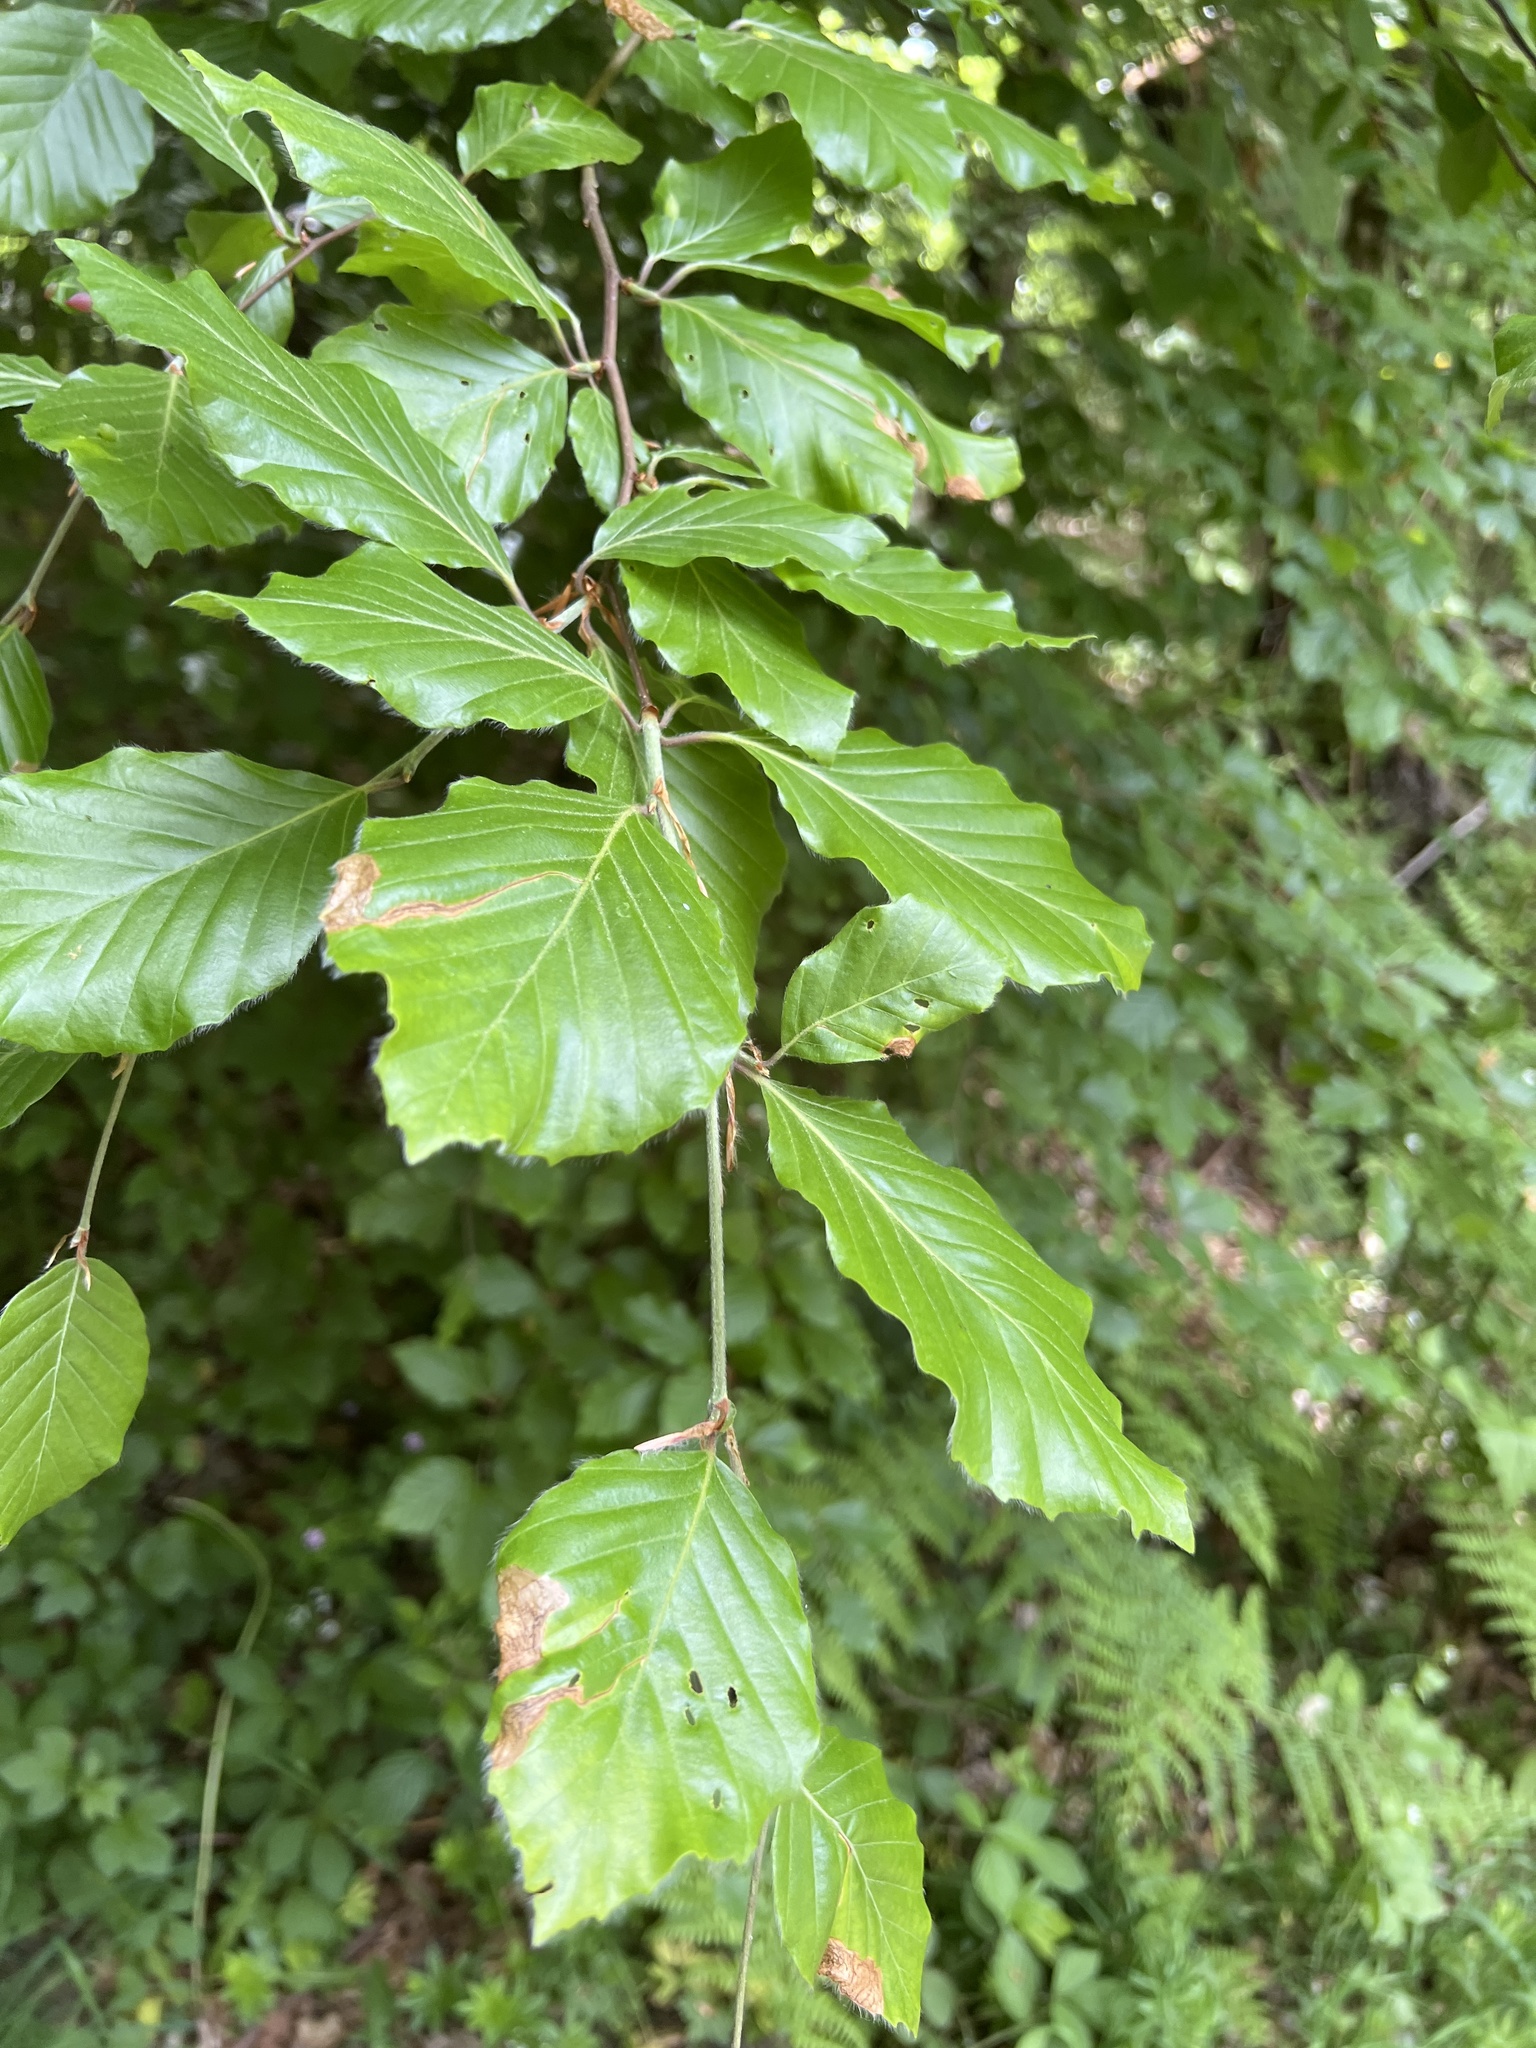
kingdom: Plantae
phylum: Tracheophyta
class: Magnoliopsida
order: Fagales
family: Fagaceae
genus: Fagus
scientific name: Fagus sylvatica
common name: Beech
